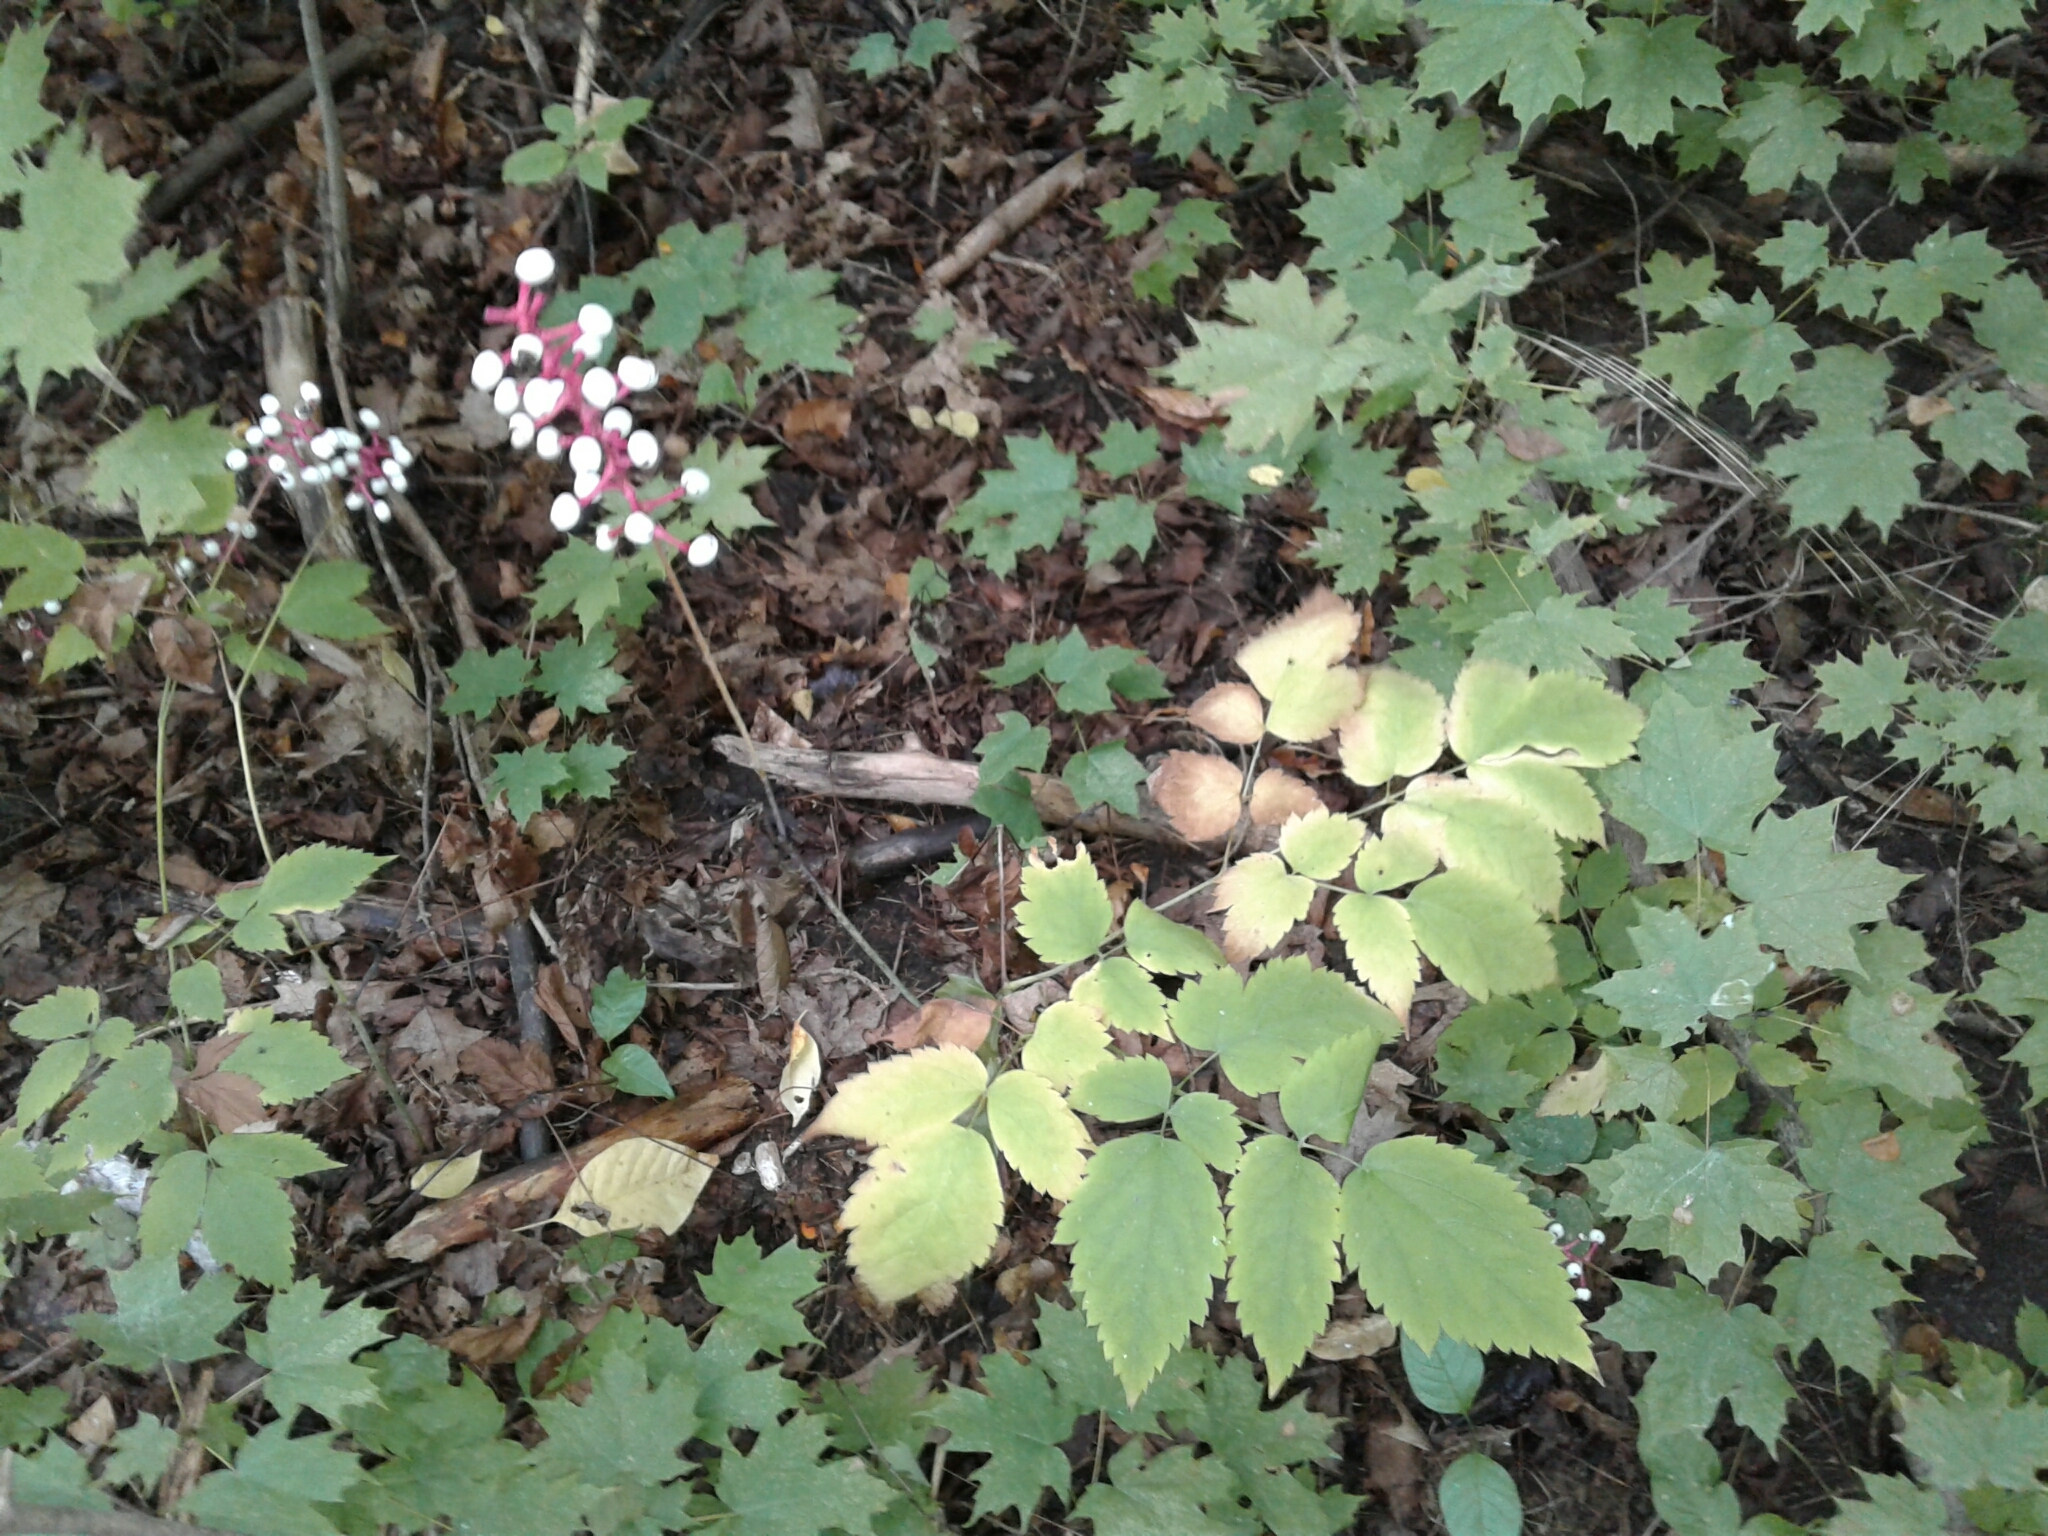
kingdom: Plantae
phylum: Tracheophyta
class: Magnoliopsida
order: Ranunculales
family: Ranunculaceae
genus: Actaea
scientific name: Actaea pachypoda
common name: Doll's-eyes
